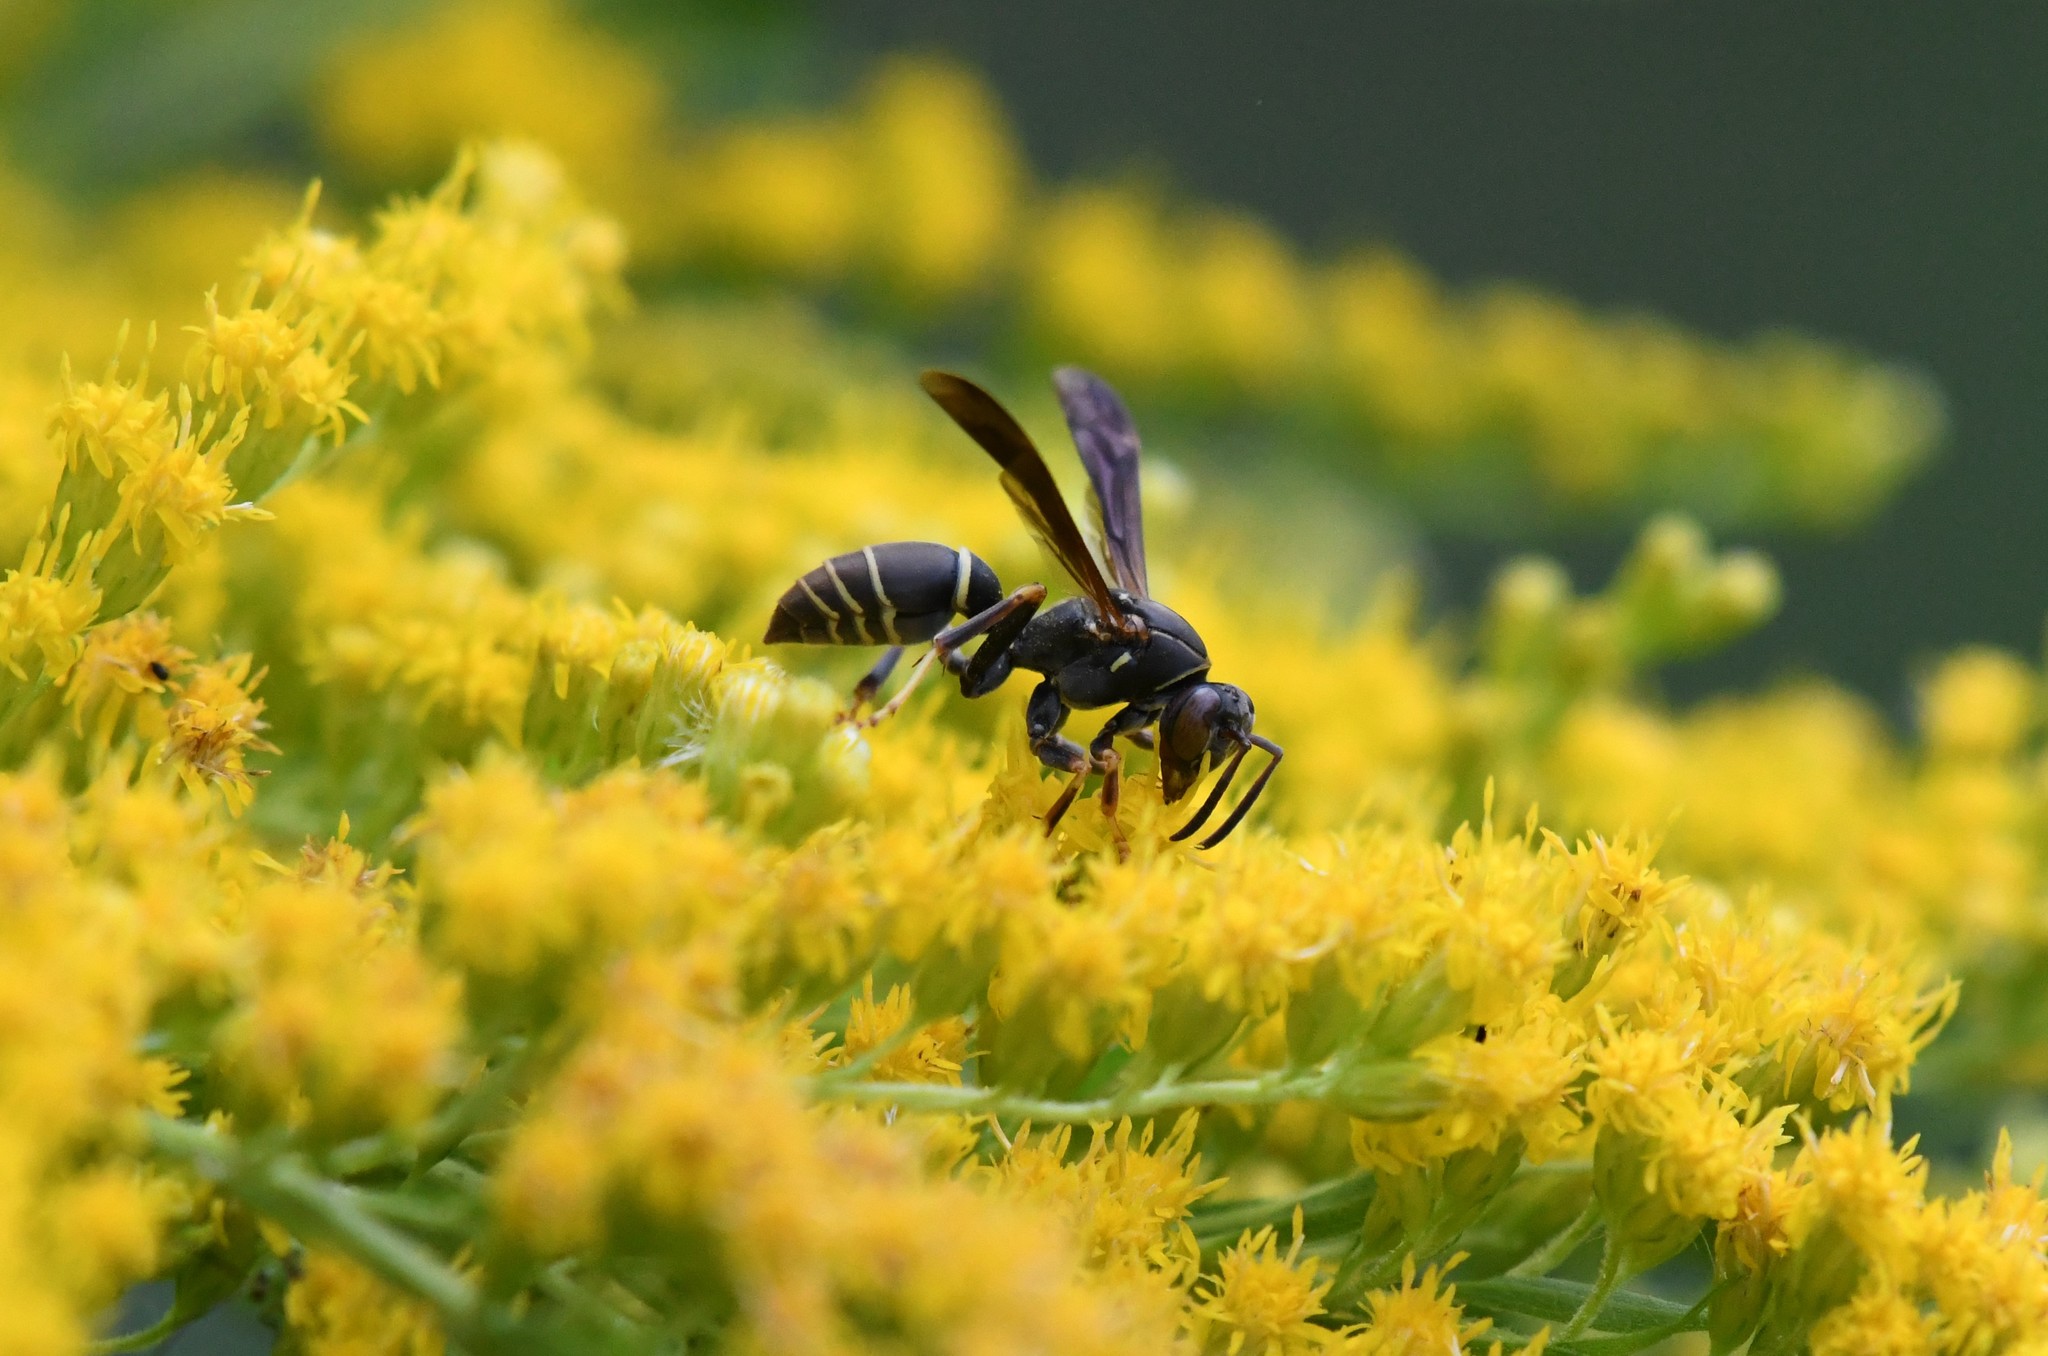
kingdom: Animalia
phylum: Arthropoda
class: Insecta
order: Hymenoptera
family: Eumenidae
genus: Polistes
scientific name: Polistes fuscatus
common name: Dark paper wasp
